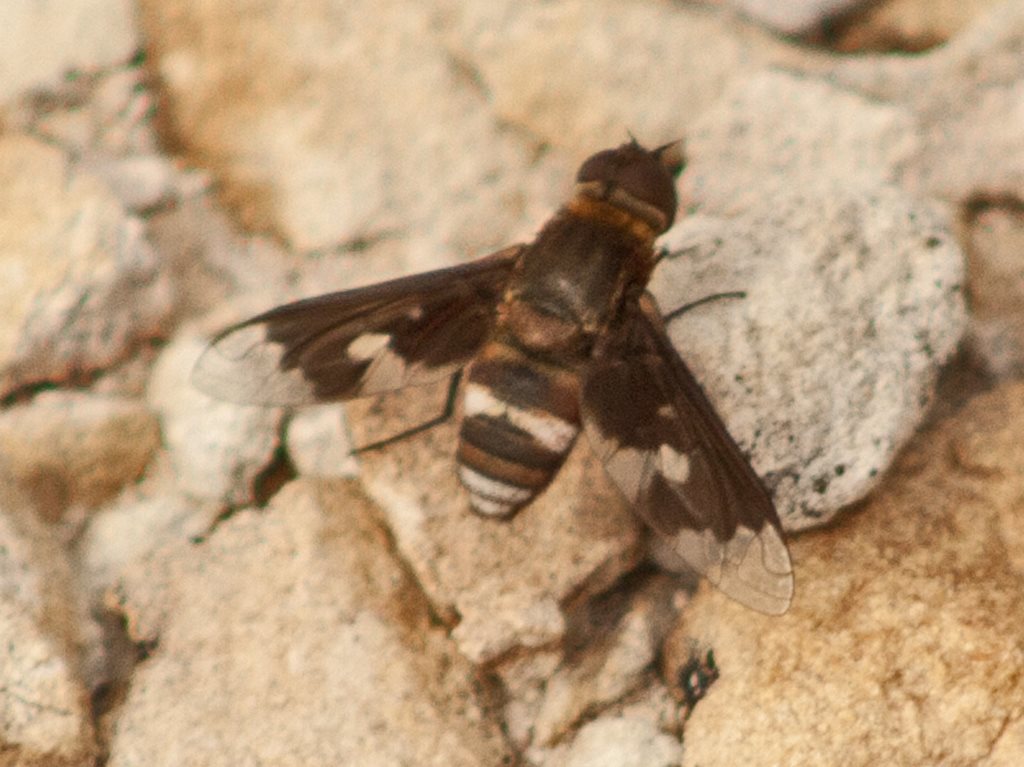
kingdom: Animalia
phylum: Arthropoda
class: Insecta
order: Diptera
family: Bombyliidae
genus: Wurda
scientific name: Wurda windorah
